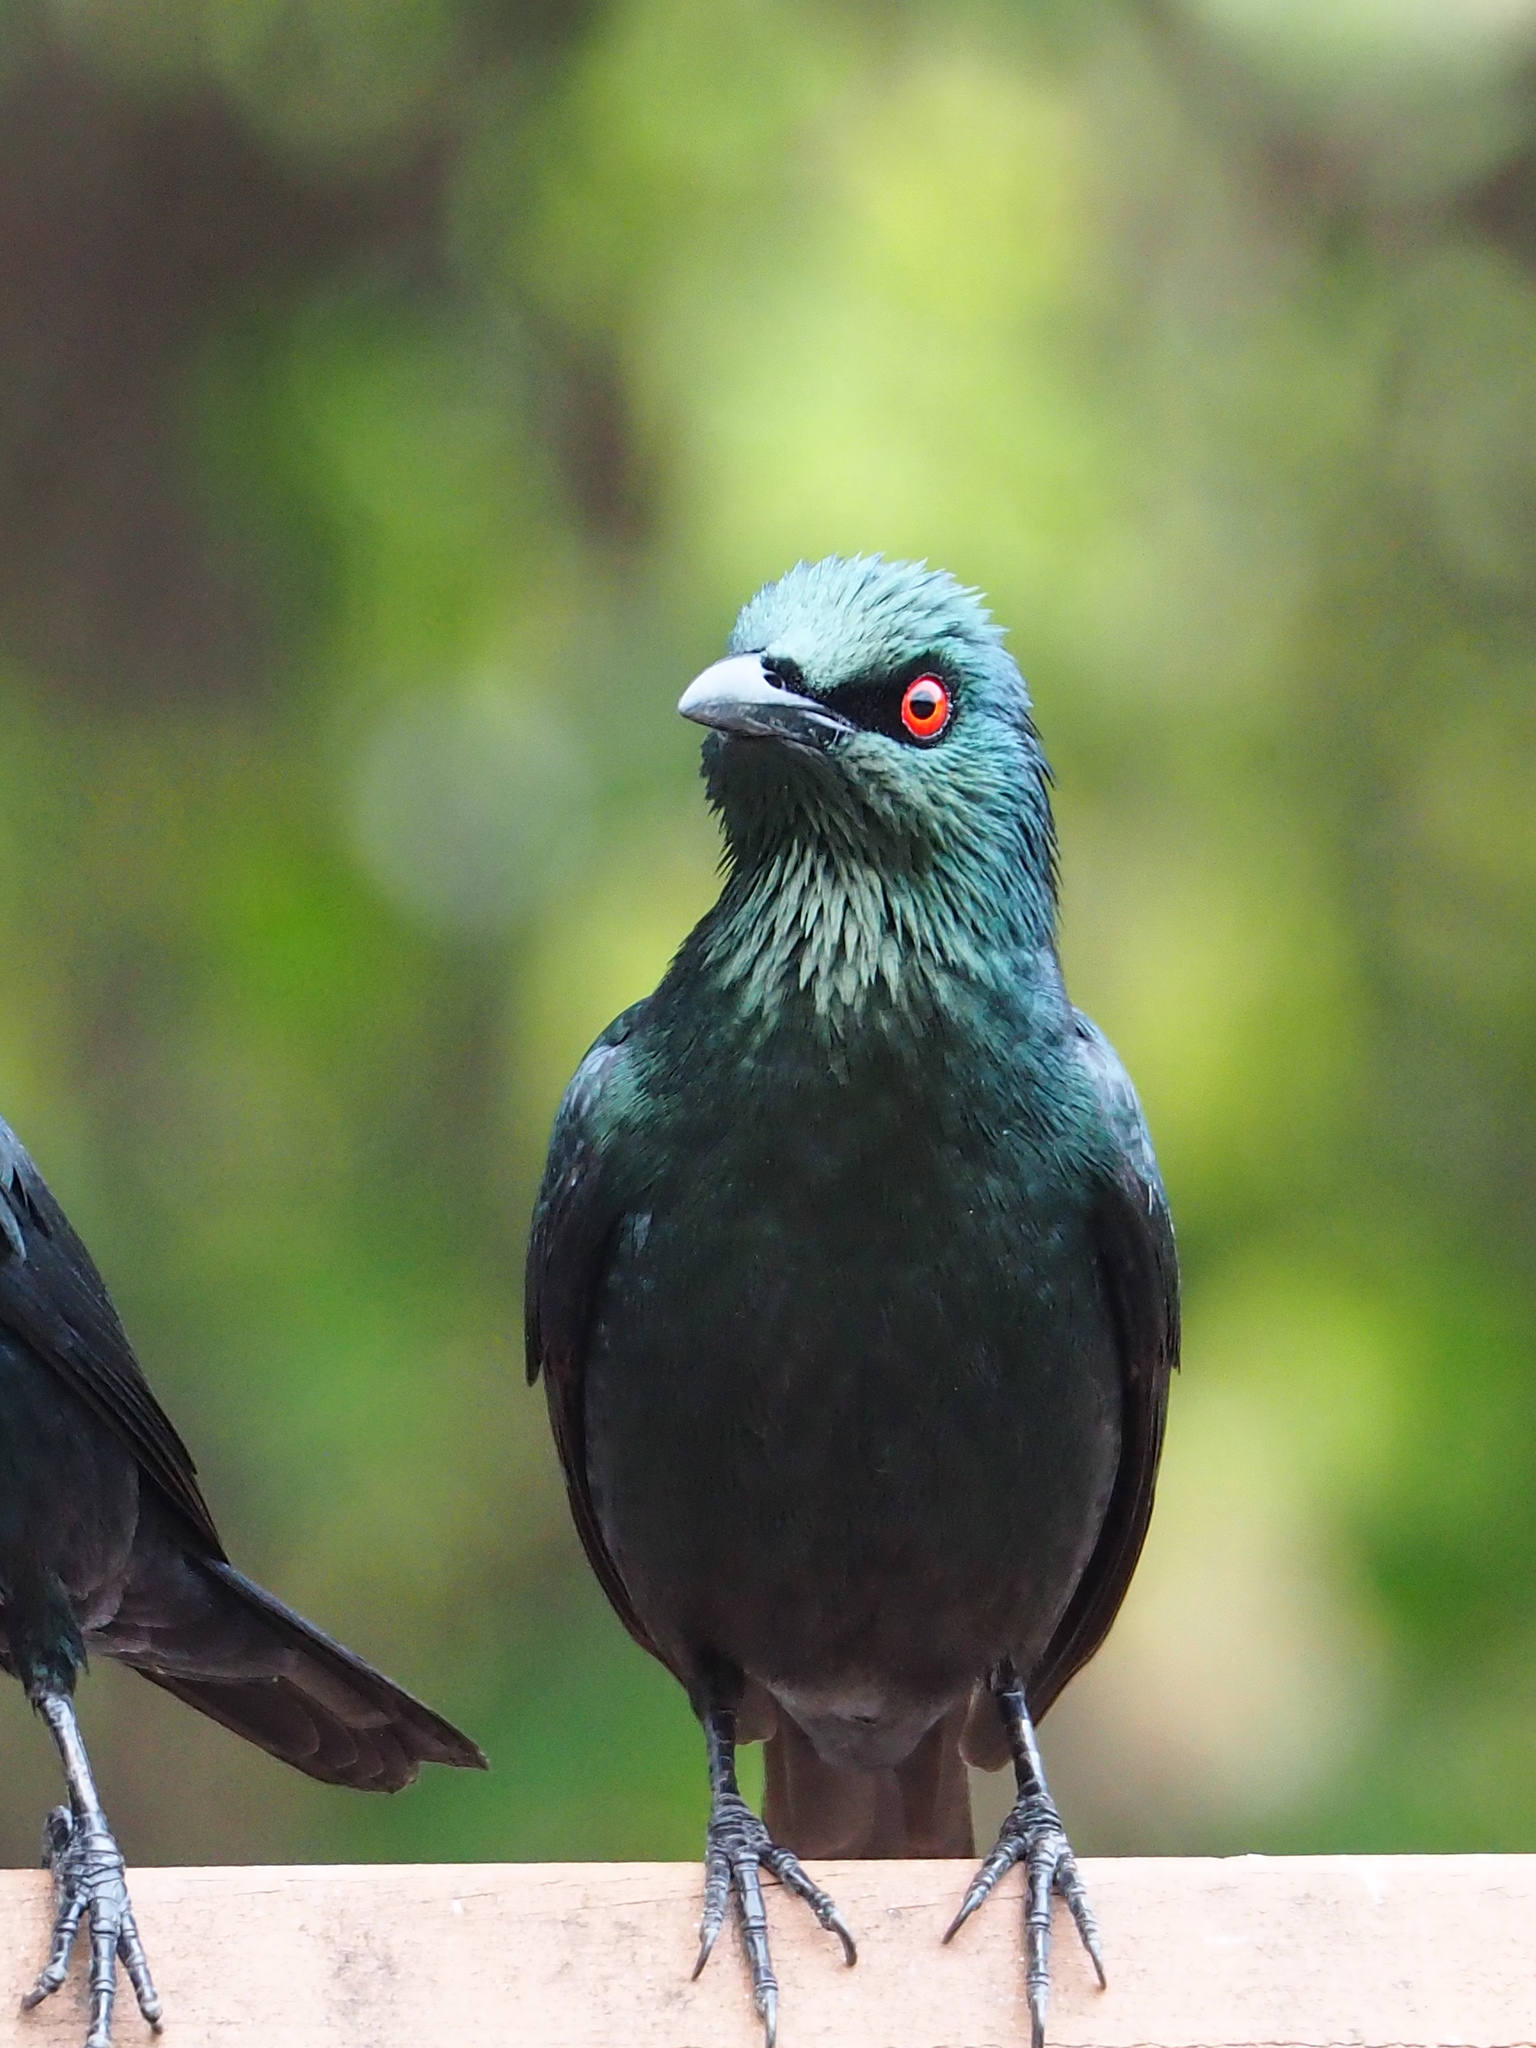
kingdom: Animalia
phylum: Chordata
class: Aves
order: Passeriformes
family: Sturnidae
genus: Aplonis
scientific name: Aplonis panayensis
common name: Asian glossy starling
